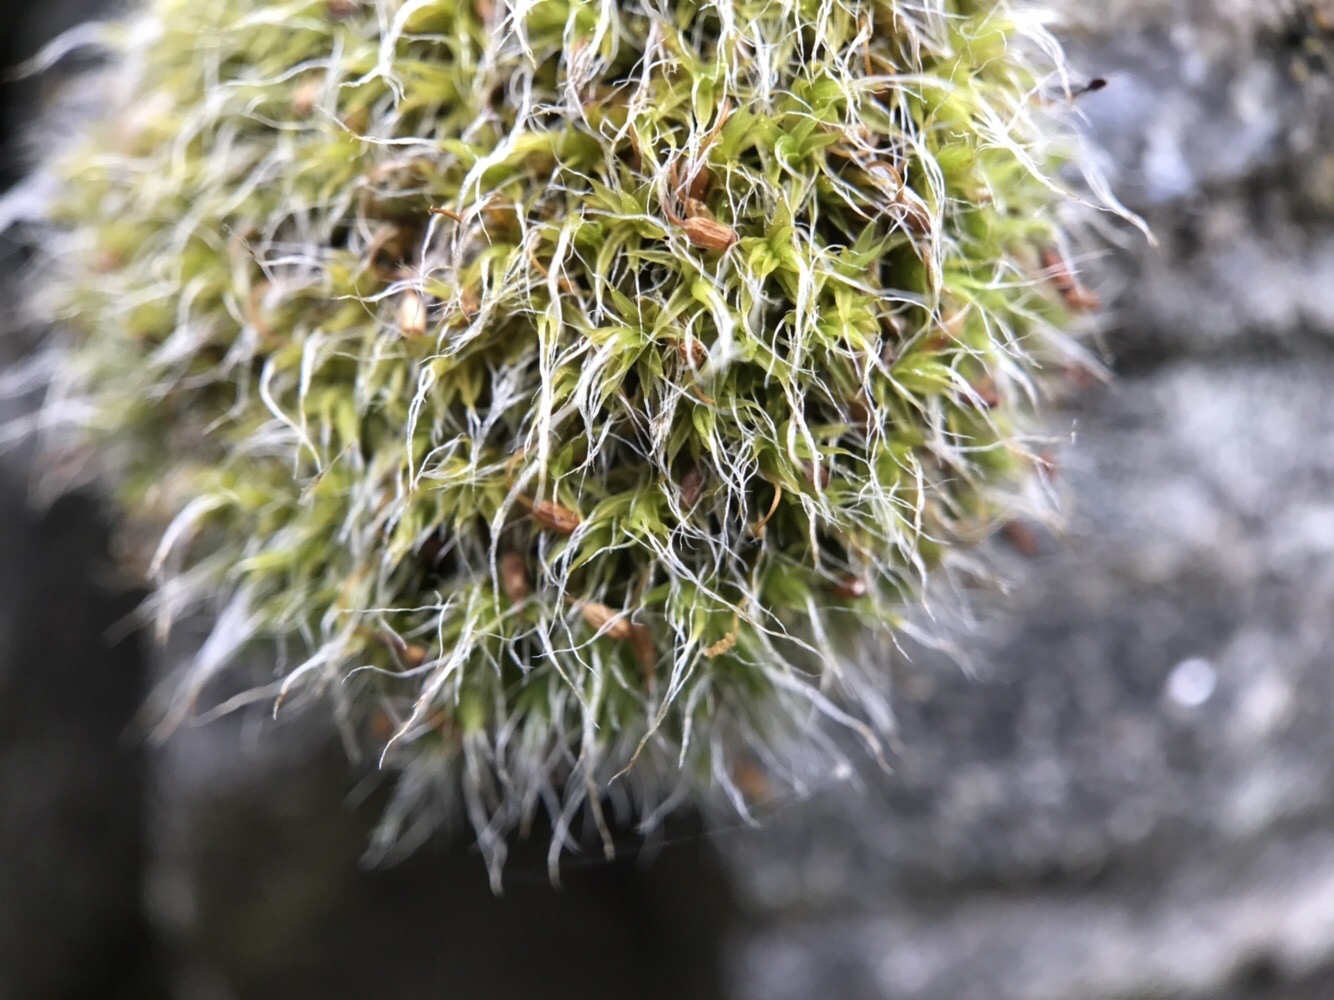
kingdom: Plantae
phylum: Bryophyta
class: Bryopsida
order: Grimmiales
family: Grimmiaceae
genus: Grimmia
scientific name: Grimmia pulvinata
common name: Grey-cushioned grimmia
